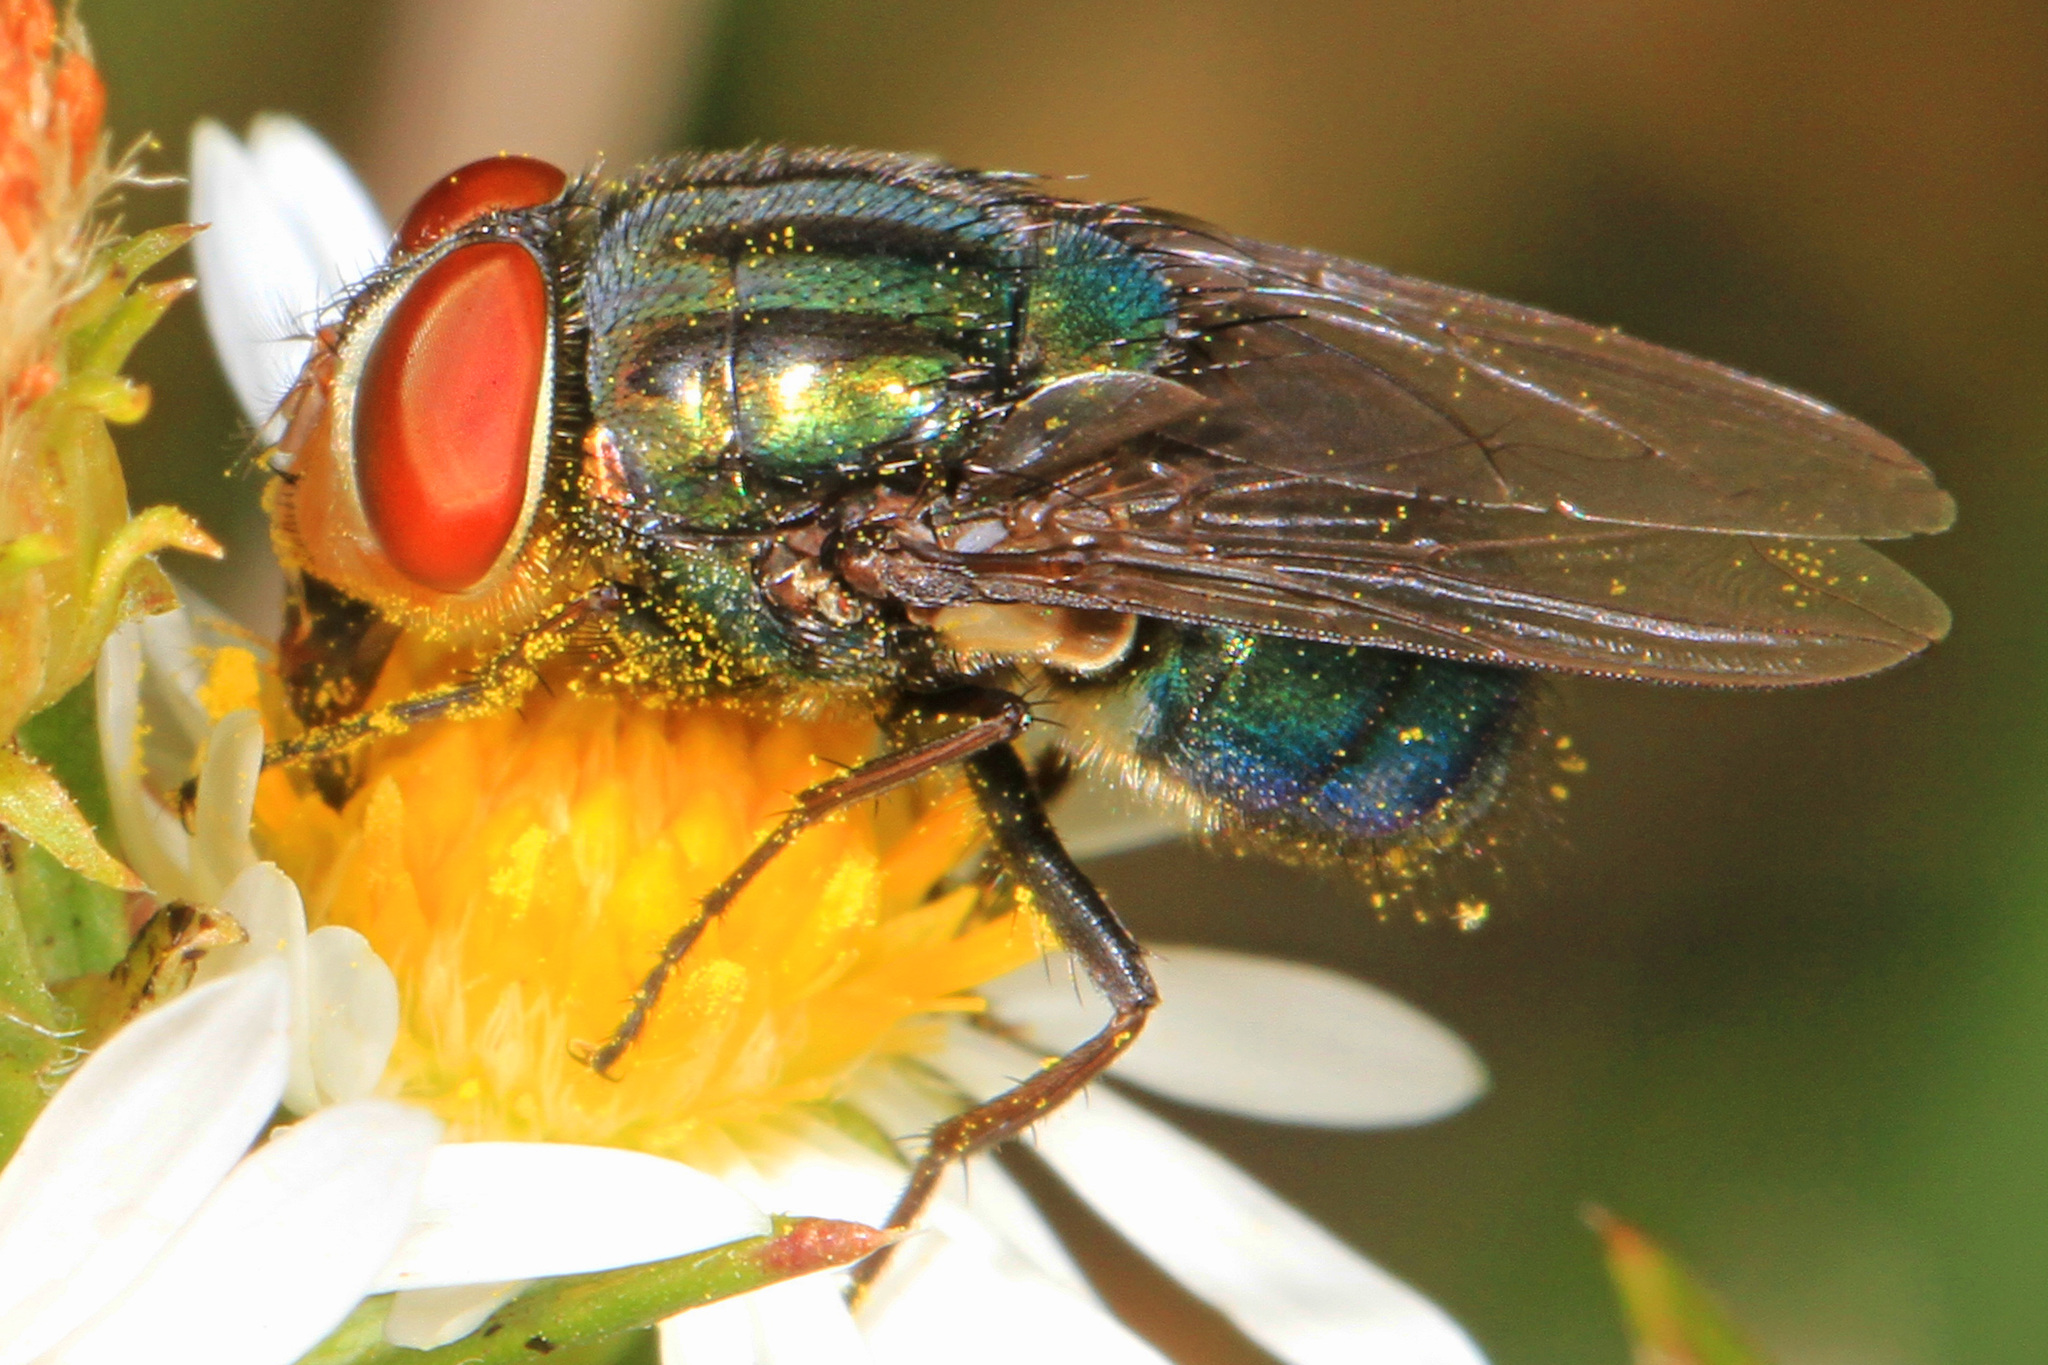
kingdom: Animalia
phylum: Arthropoda
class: Insecta
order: Diptera
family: Calliphoridae
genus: Cochliomyia
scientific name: Cochliomyia macellaria
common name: Secondary screwworm
